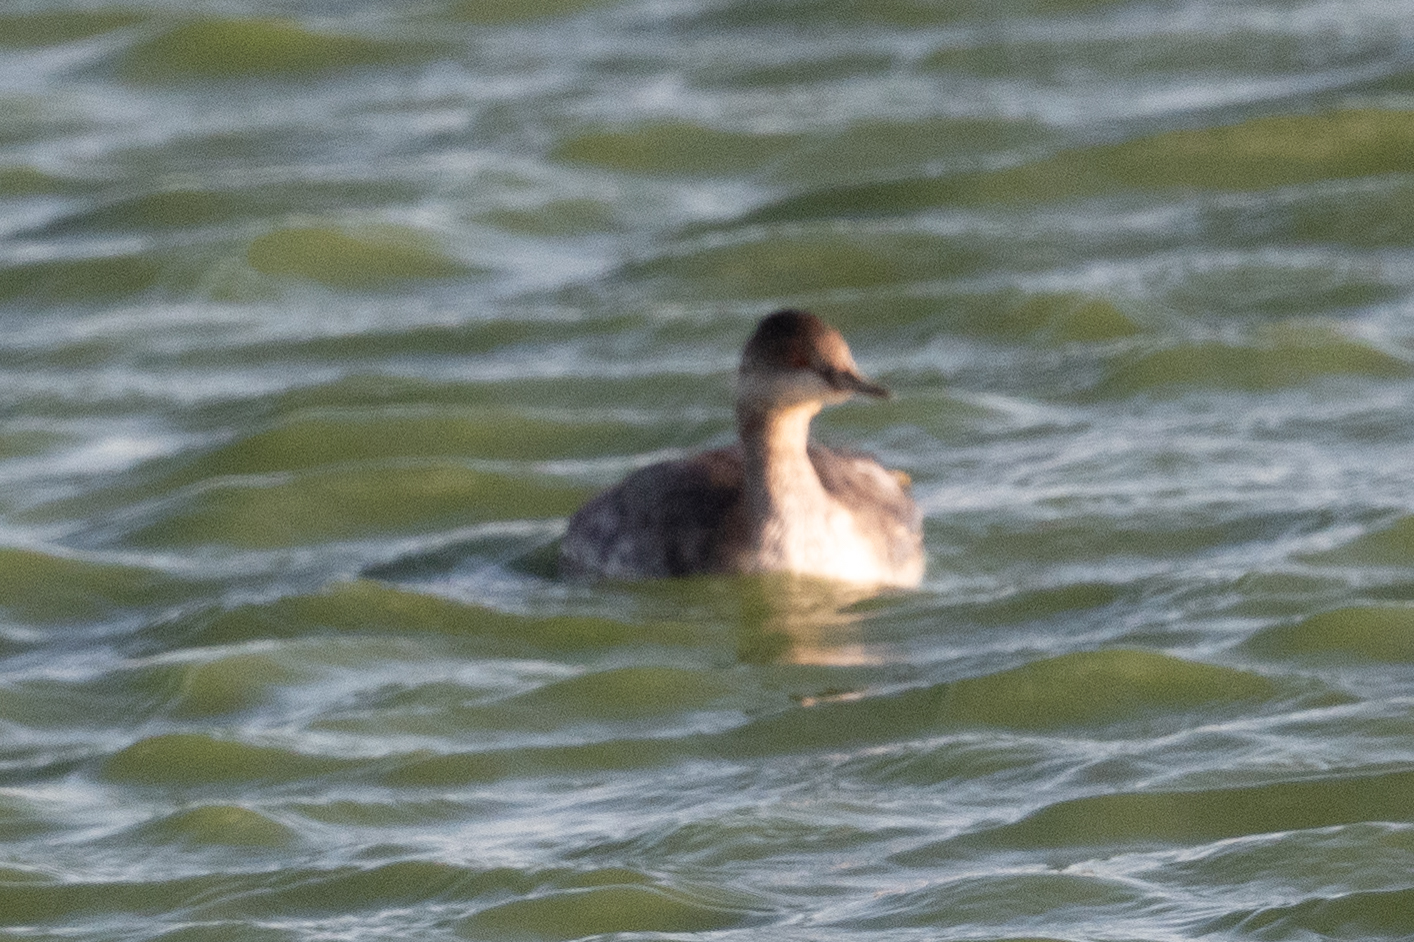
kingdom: Animalia
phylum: Chordata
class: Aves
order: Podicipediformes
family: Podicipedidae
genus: Podiceps
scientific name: Podiceps nigricollis
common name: Black-necked grebe
